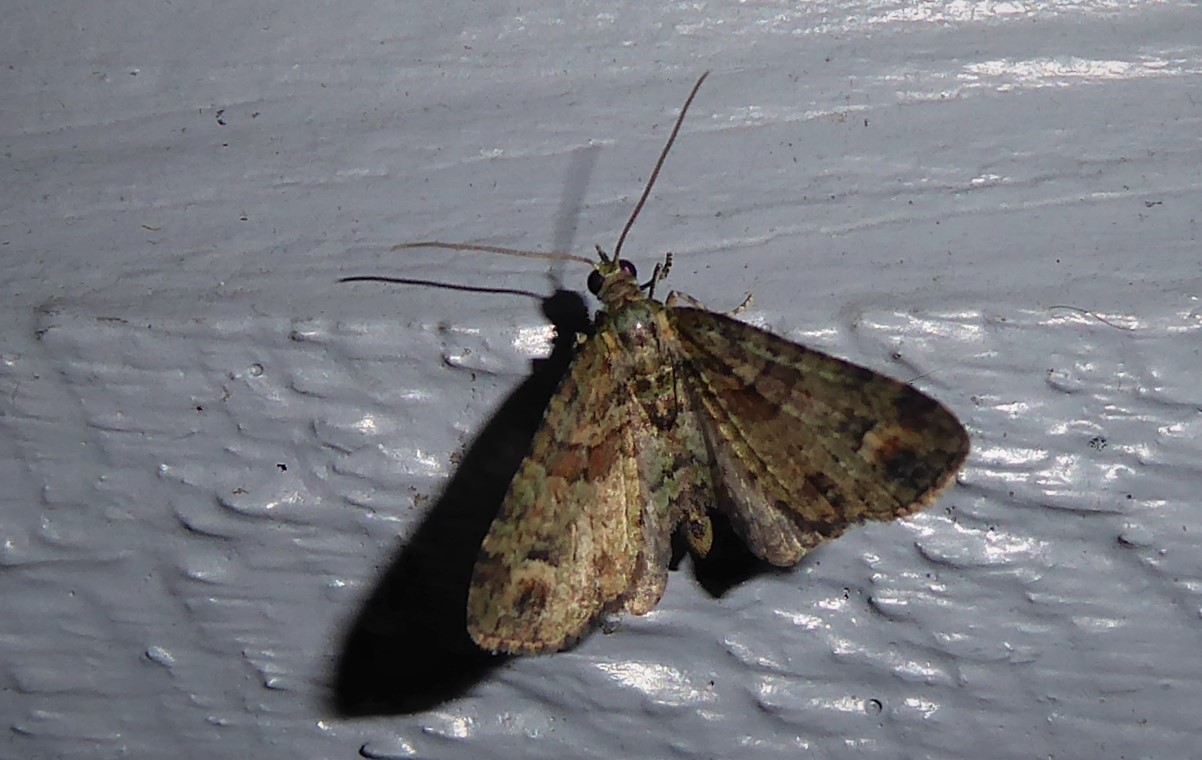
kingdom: Animalia
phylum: Arthropoda
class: Insecta
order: Lepidoptera
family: Geometridae
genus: Idaea
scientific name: Idaea mutanda
